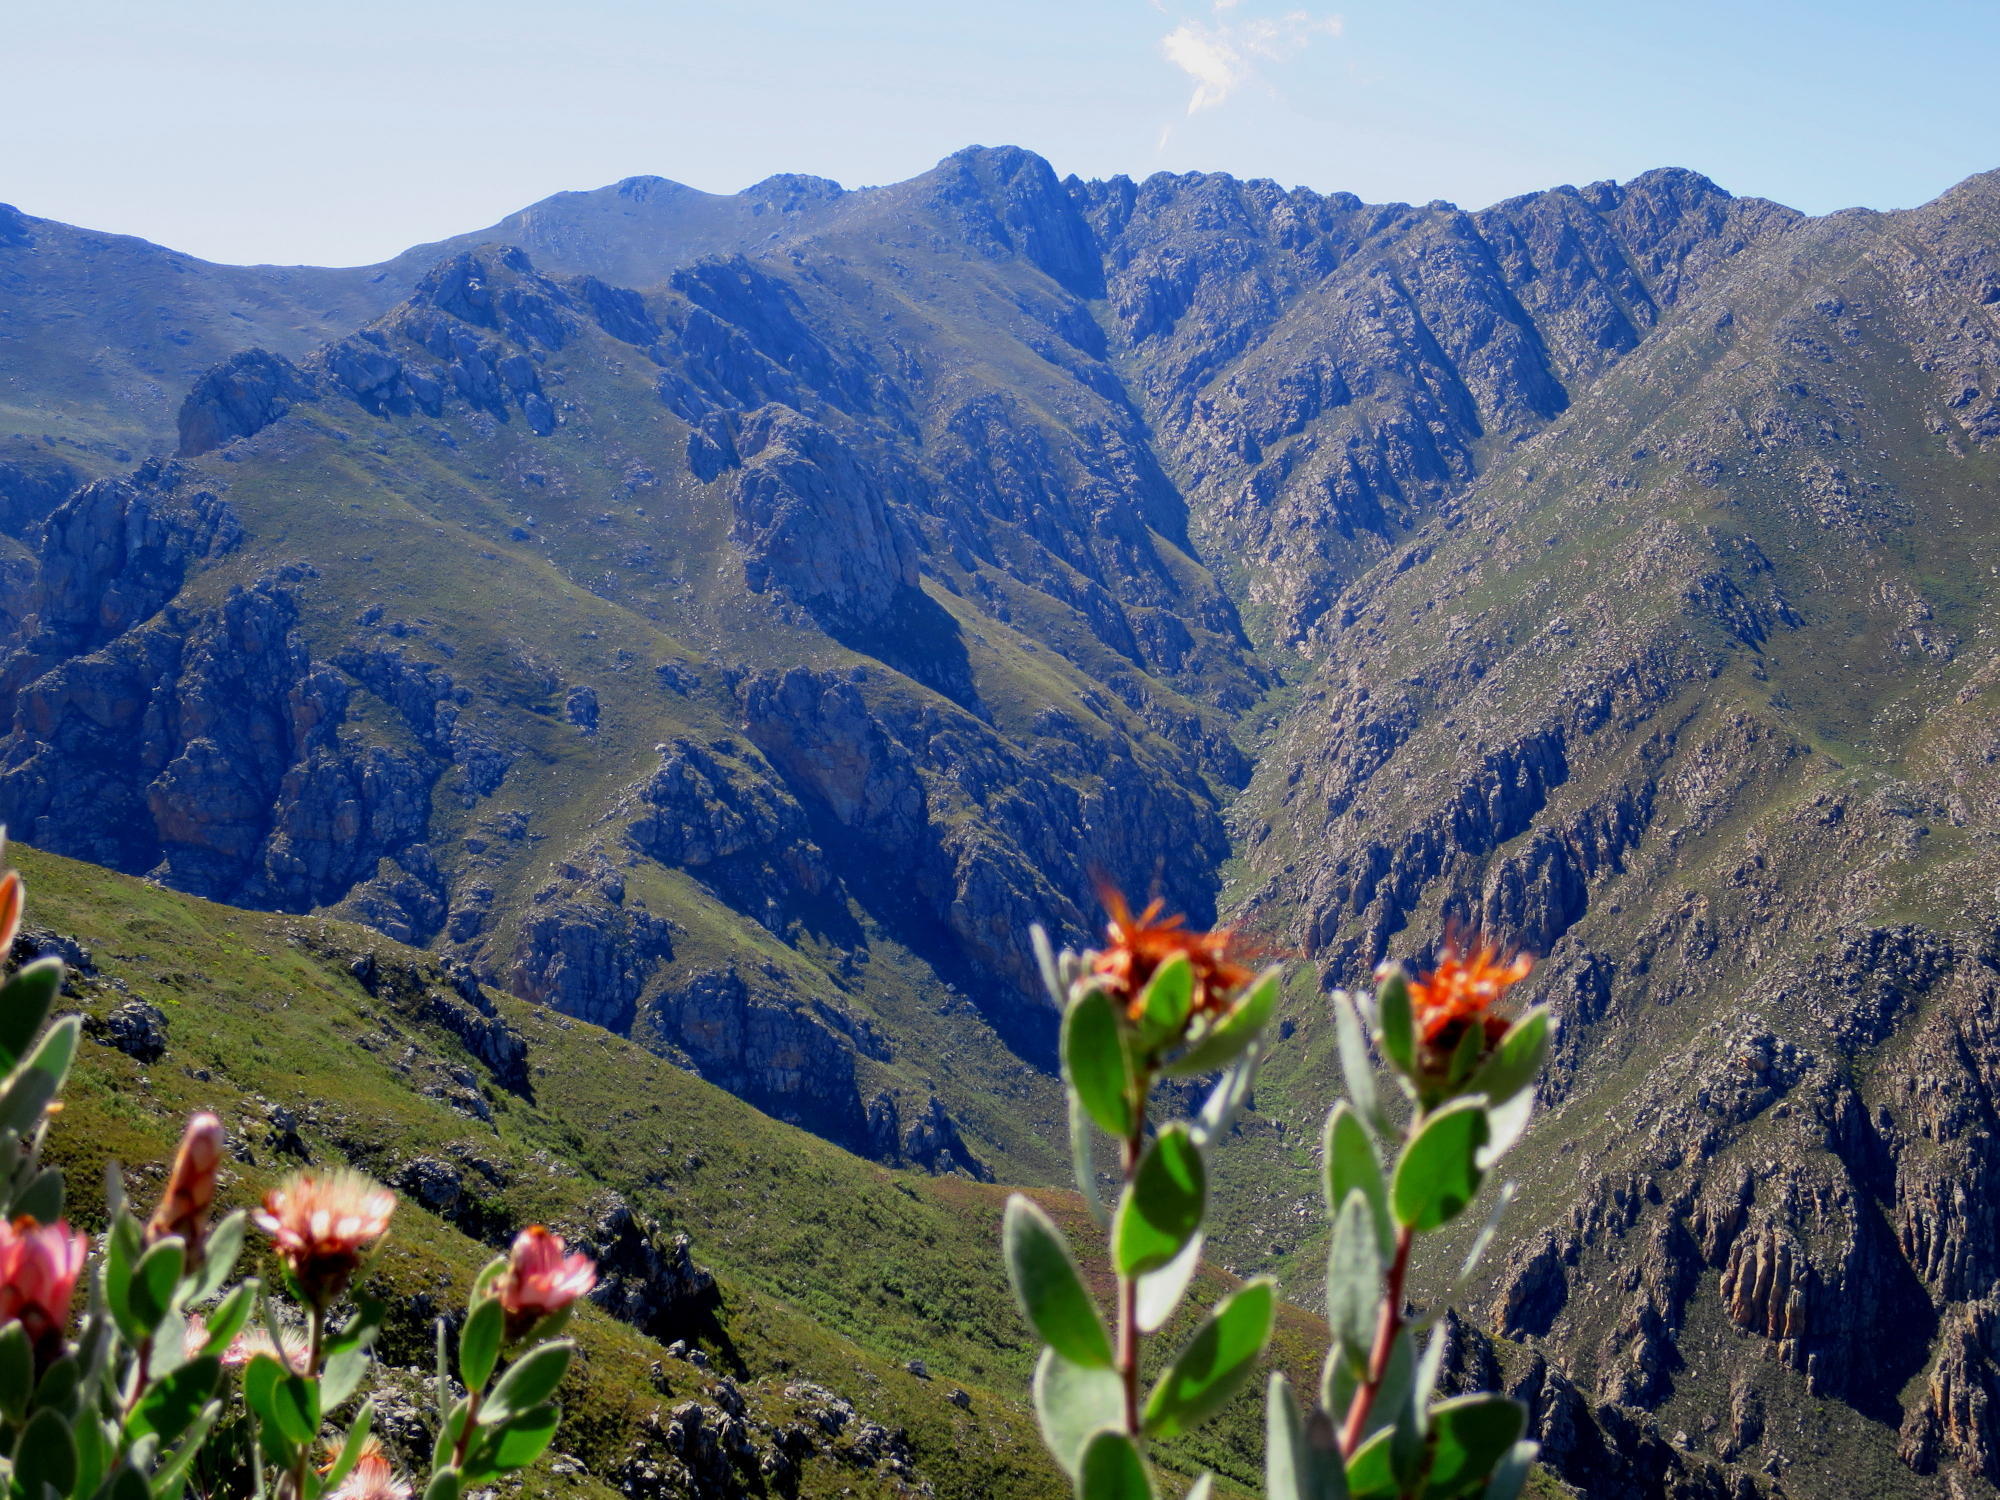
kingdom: Plantae
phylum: Tracheophyta
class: Magnoliopsida
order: Proteales
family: Proteaceae
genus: Protea
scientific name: Protea punctata
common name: Water sugarbush
